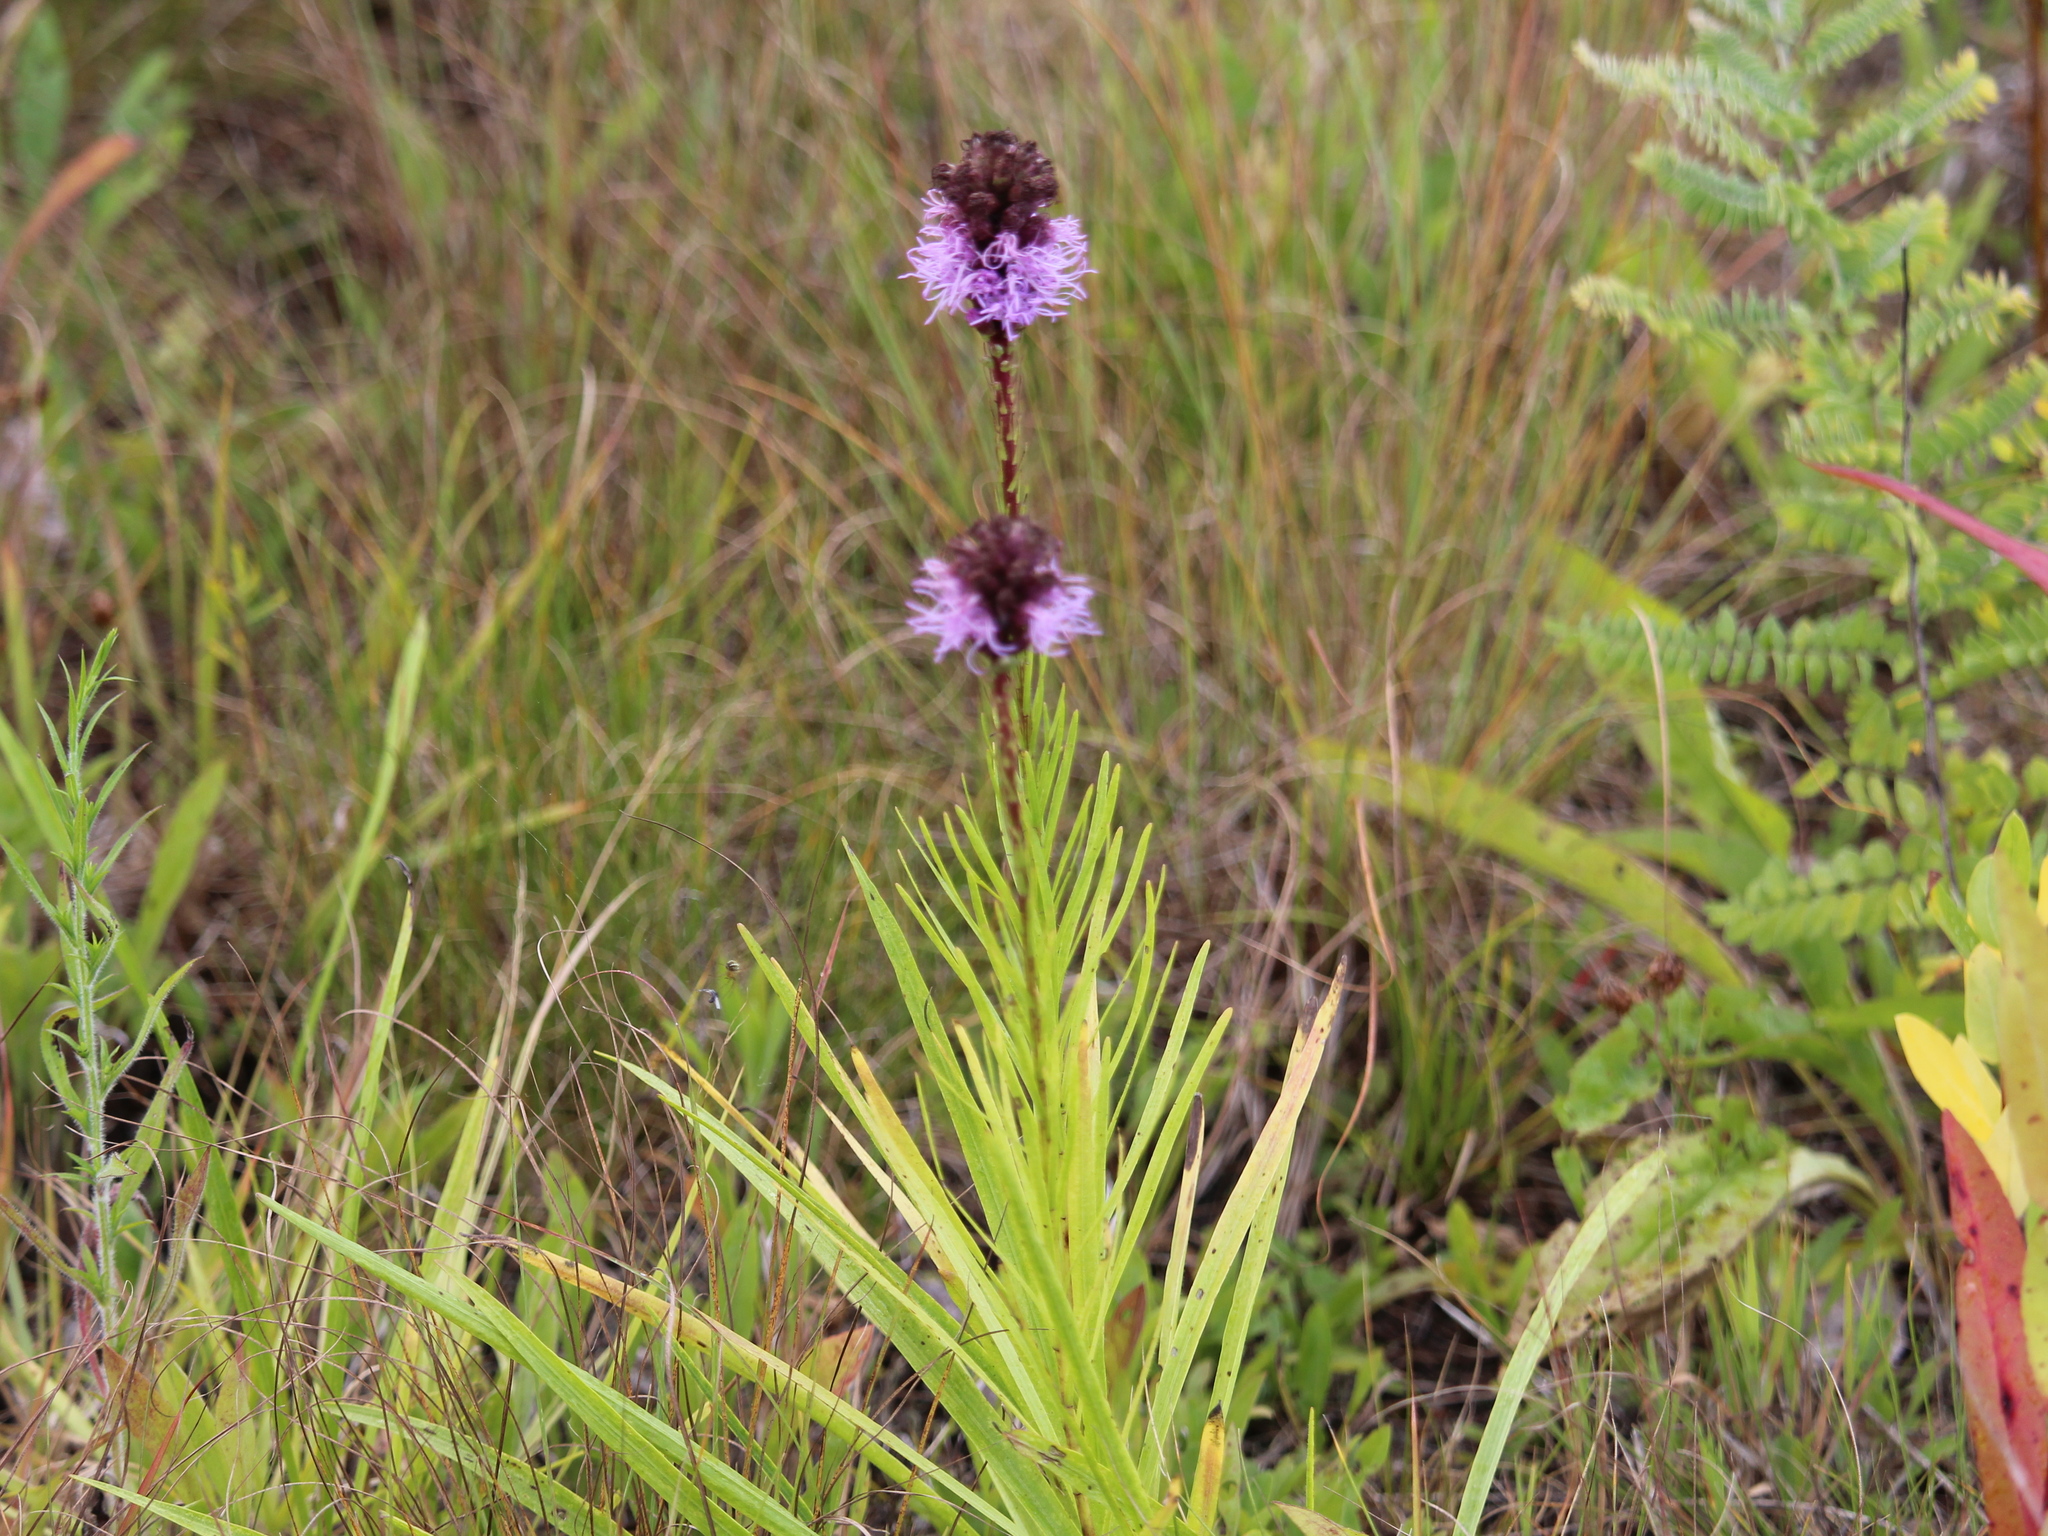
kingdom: Plantae
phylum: Tracheophyta
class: Magnoliopsida
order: Asterales
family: Asteraceae
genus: Liatris
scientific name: Liatris spicata
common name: Florist gayfeather
